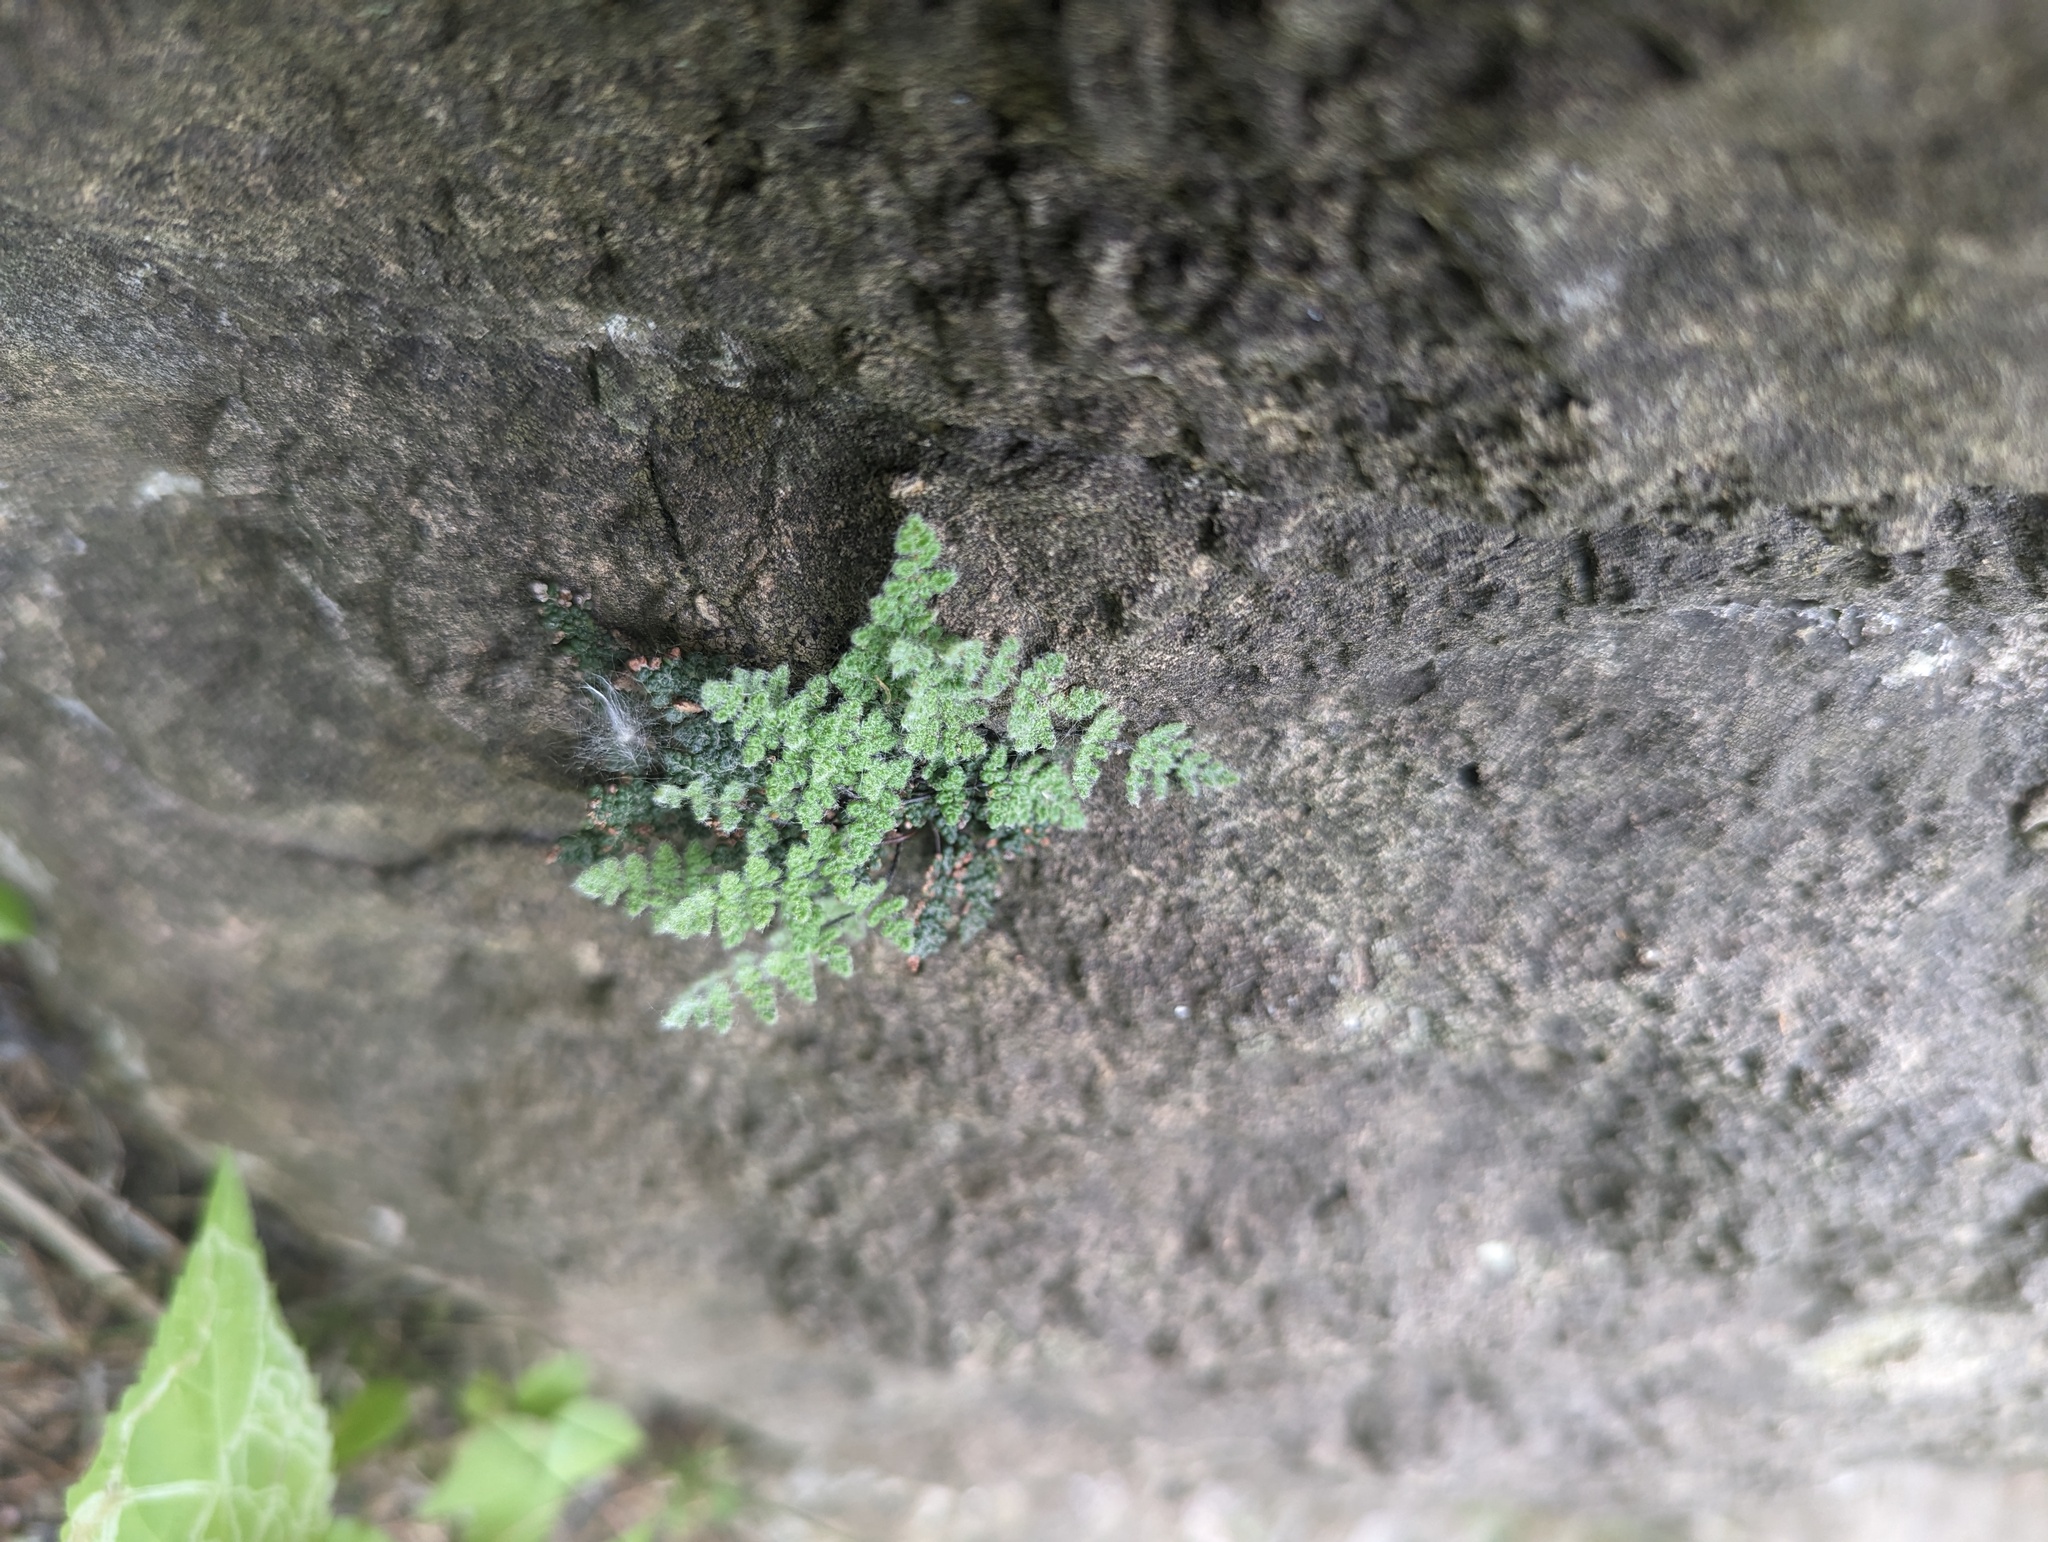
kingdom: Plantae
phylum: Tracheophyta
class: Polypodiopsida
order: Polypodiales
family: Pteridaceae
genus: Myriopteris
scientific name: Myriopteris gracilis
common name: Fee's lip fern
